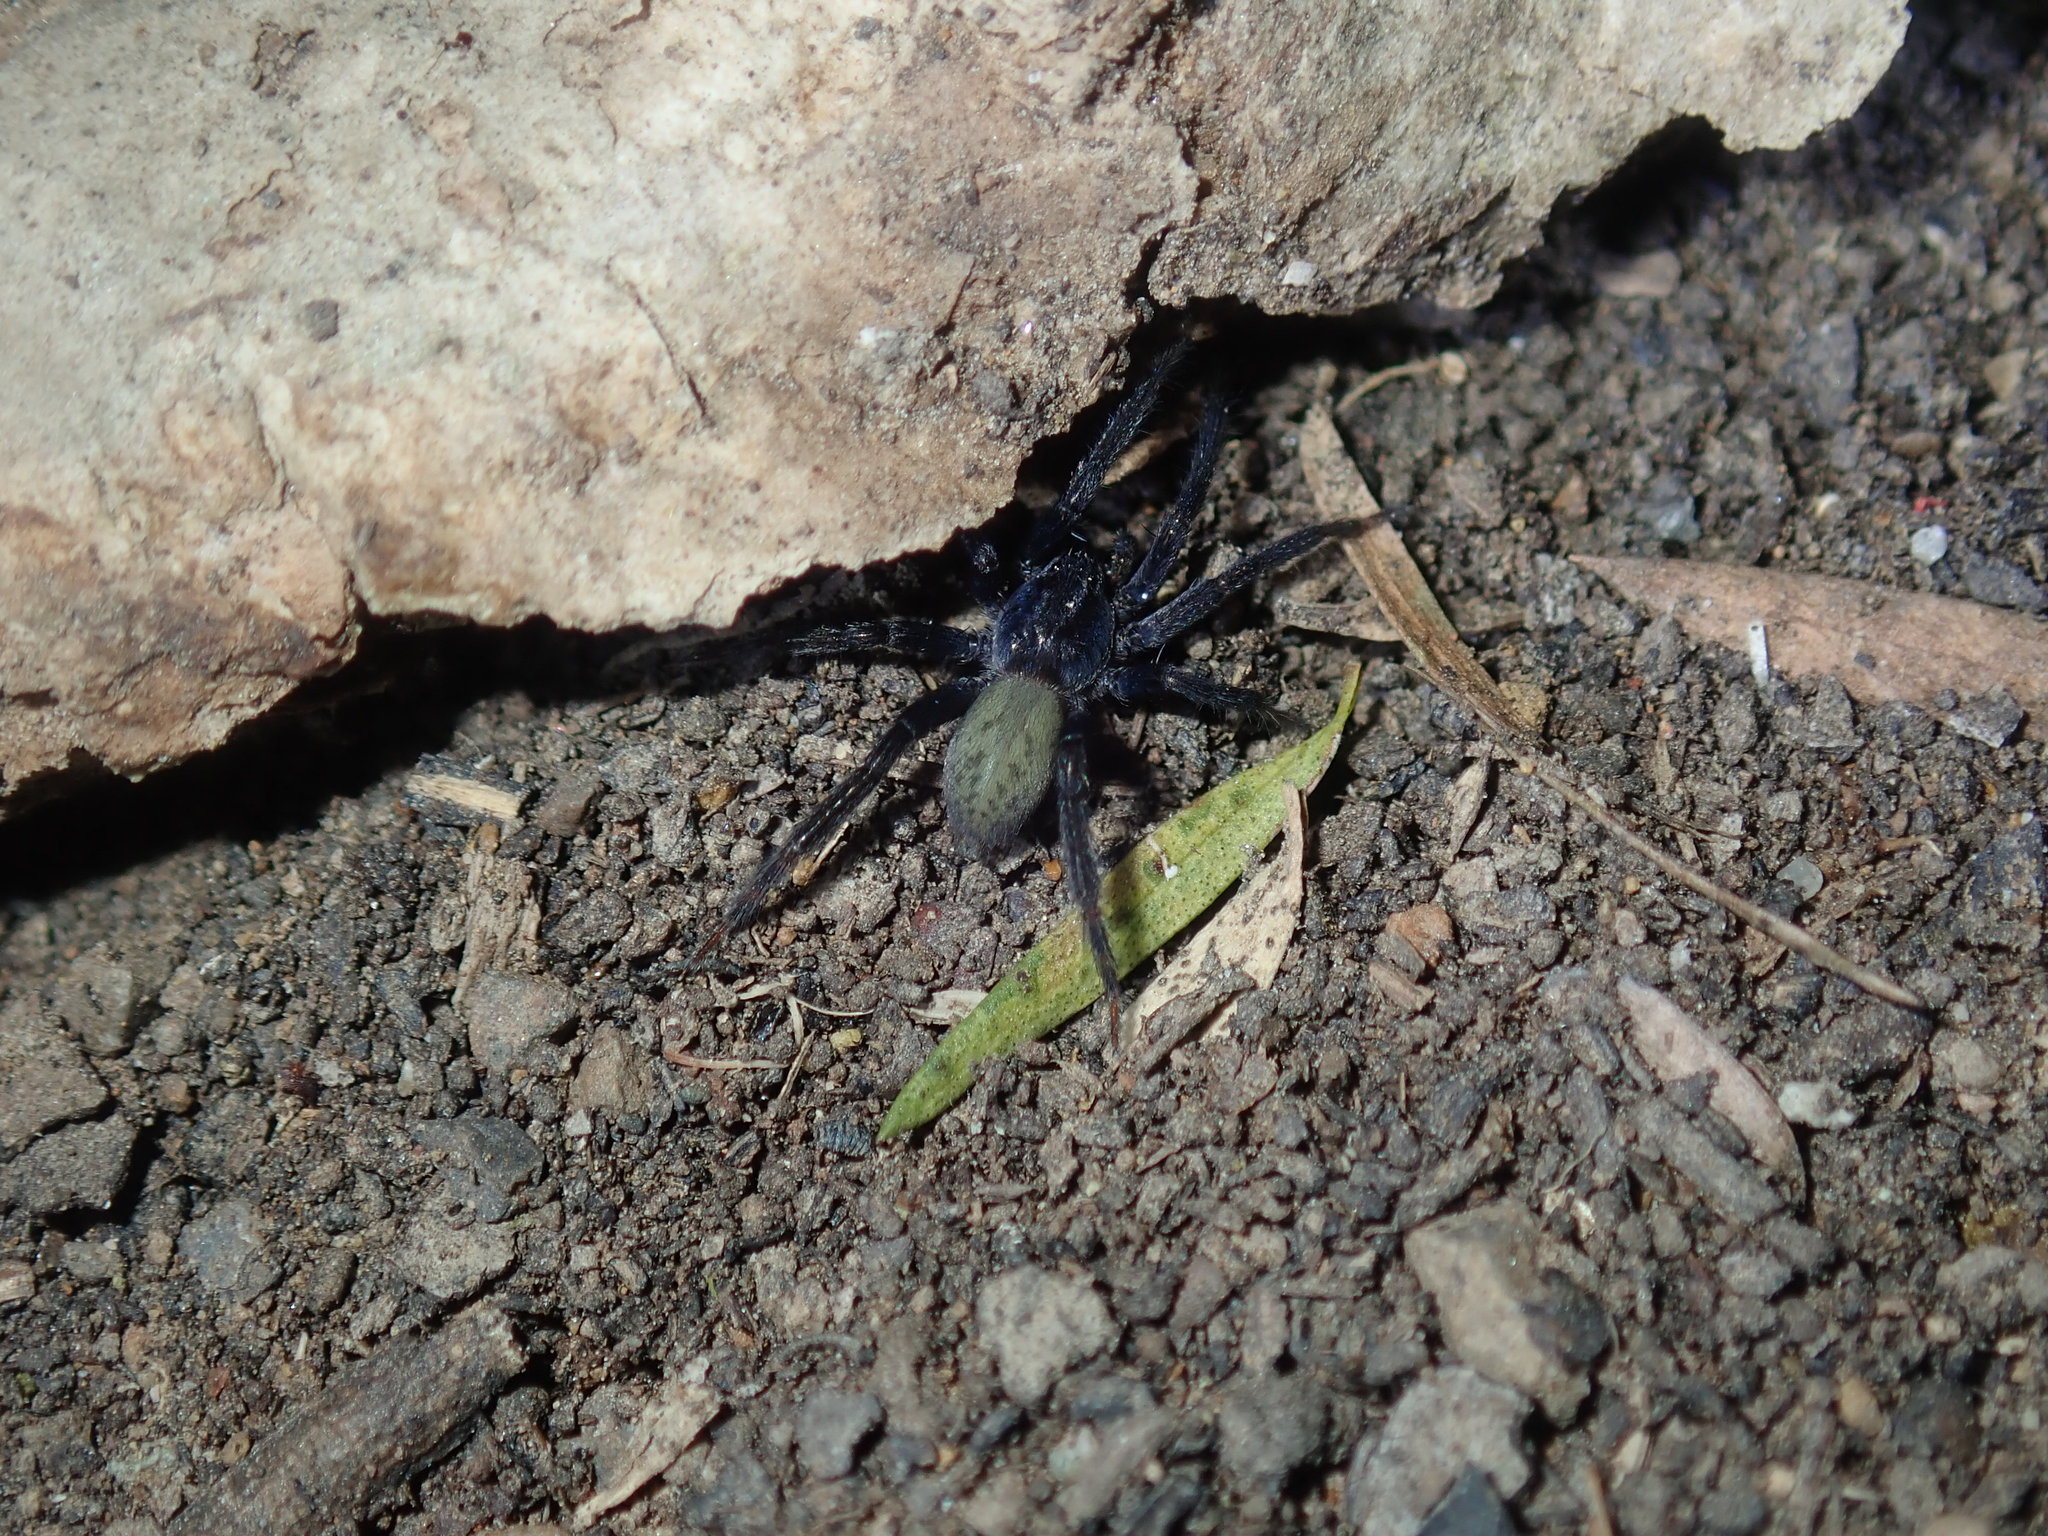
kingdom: Animalia
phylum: Arthropoda
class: Arachnida
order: Araneae
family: Miturgidae
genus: Nuliodon
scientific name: Nuliodon fishburni
